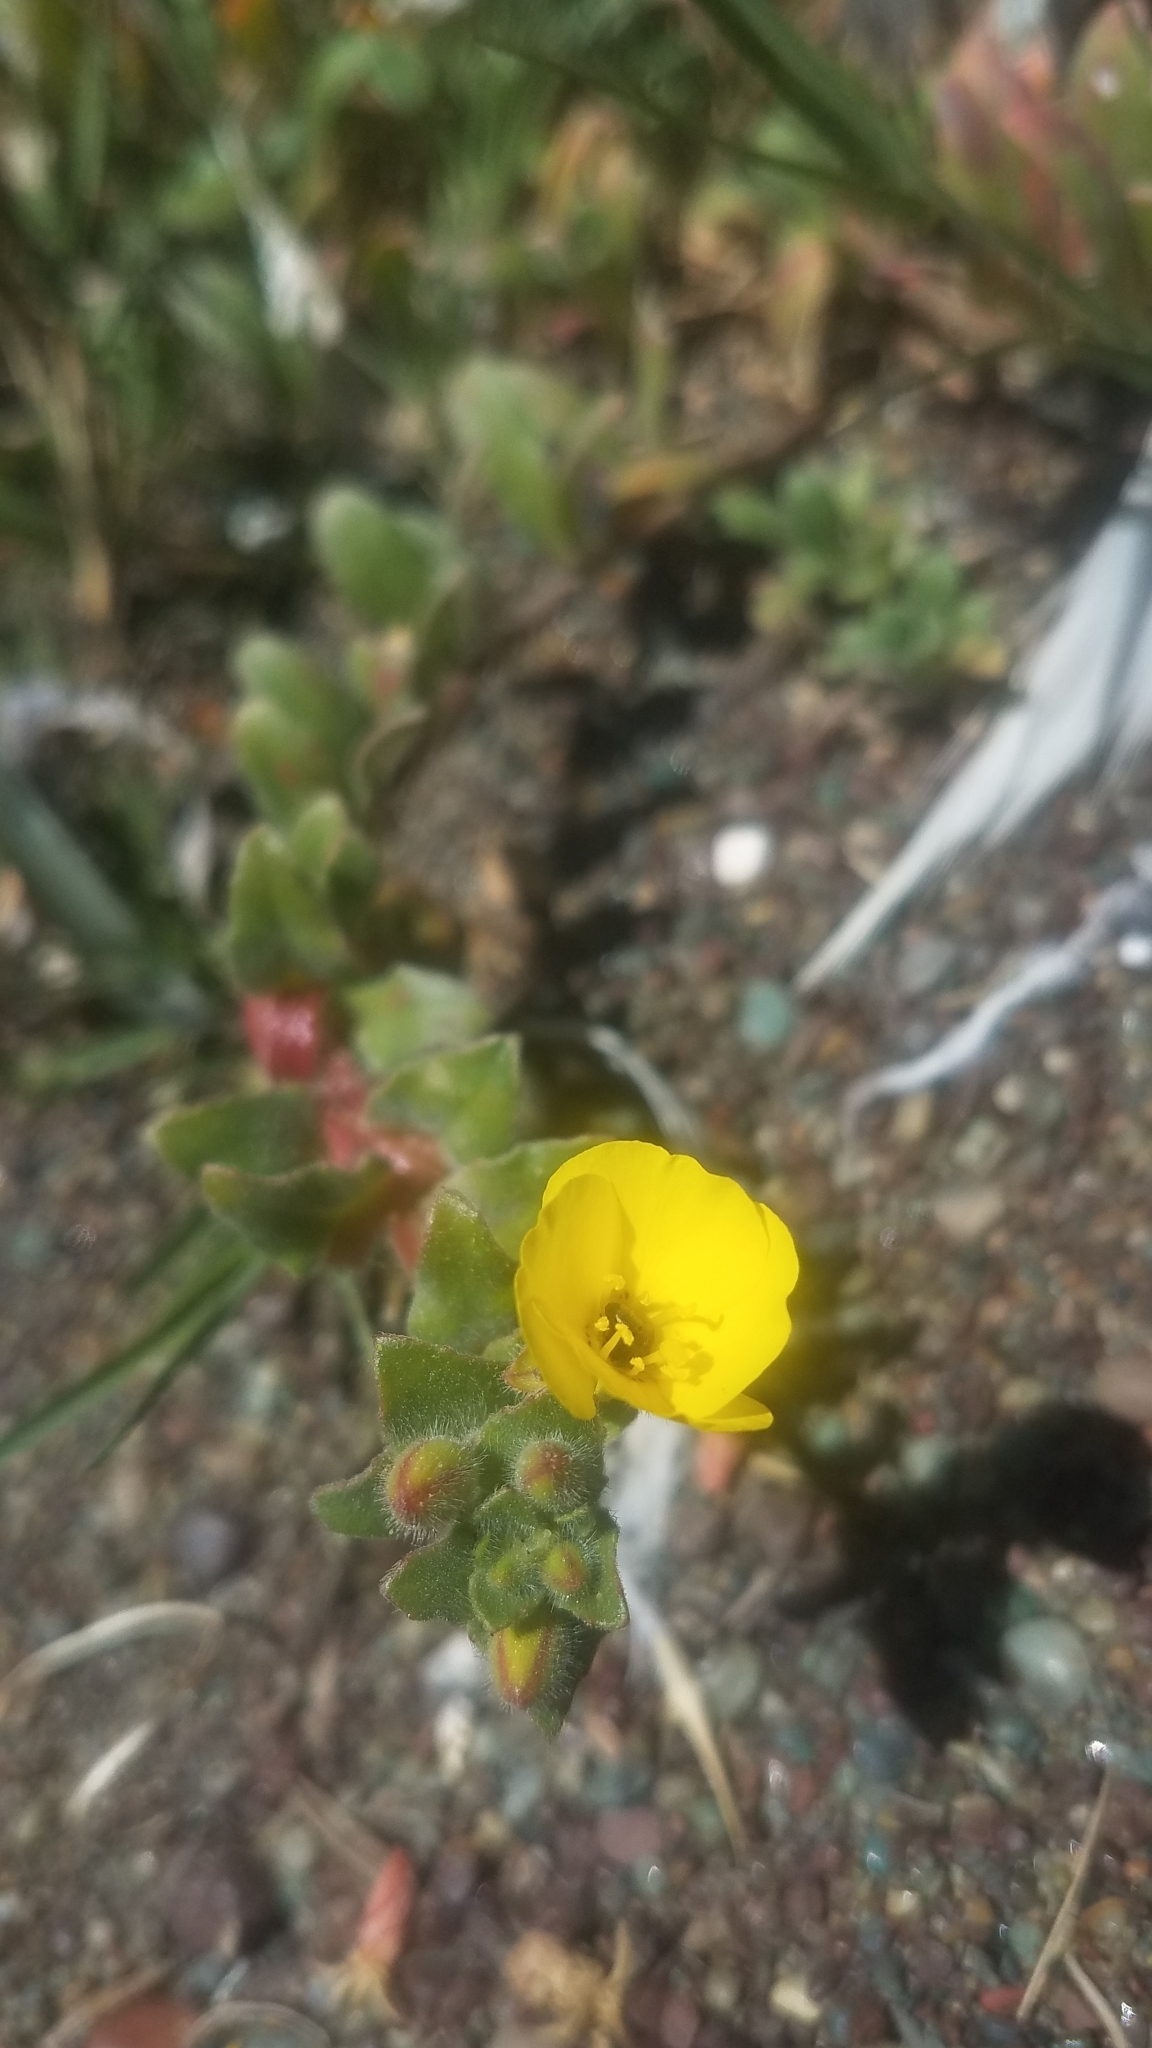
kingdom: Plantae
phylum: Tracheophyta
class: Magnoliopsida
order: Myrtales
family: Onagraceae
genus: Camissoniopsis
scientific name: Camissoniopsis cheiranthifolia
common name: Beach suncup
